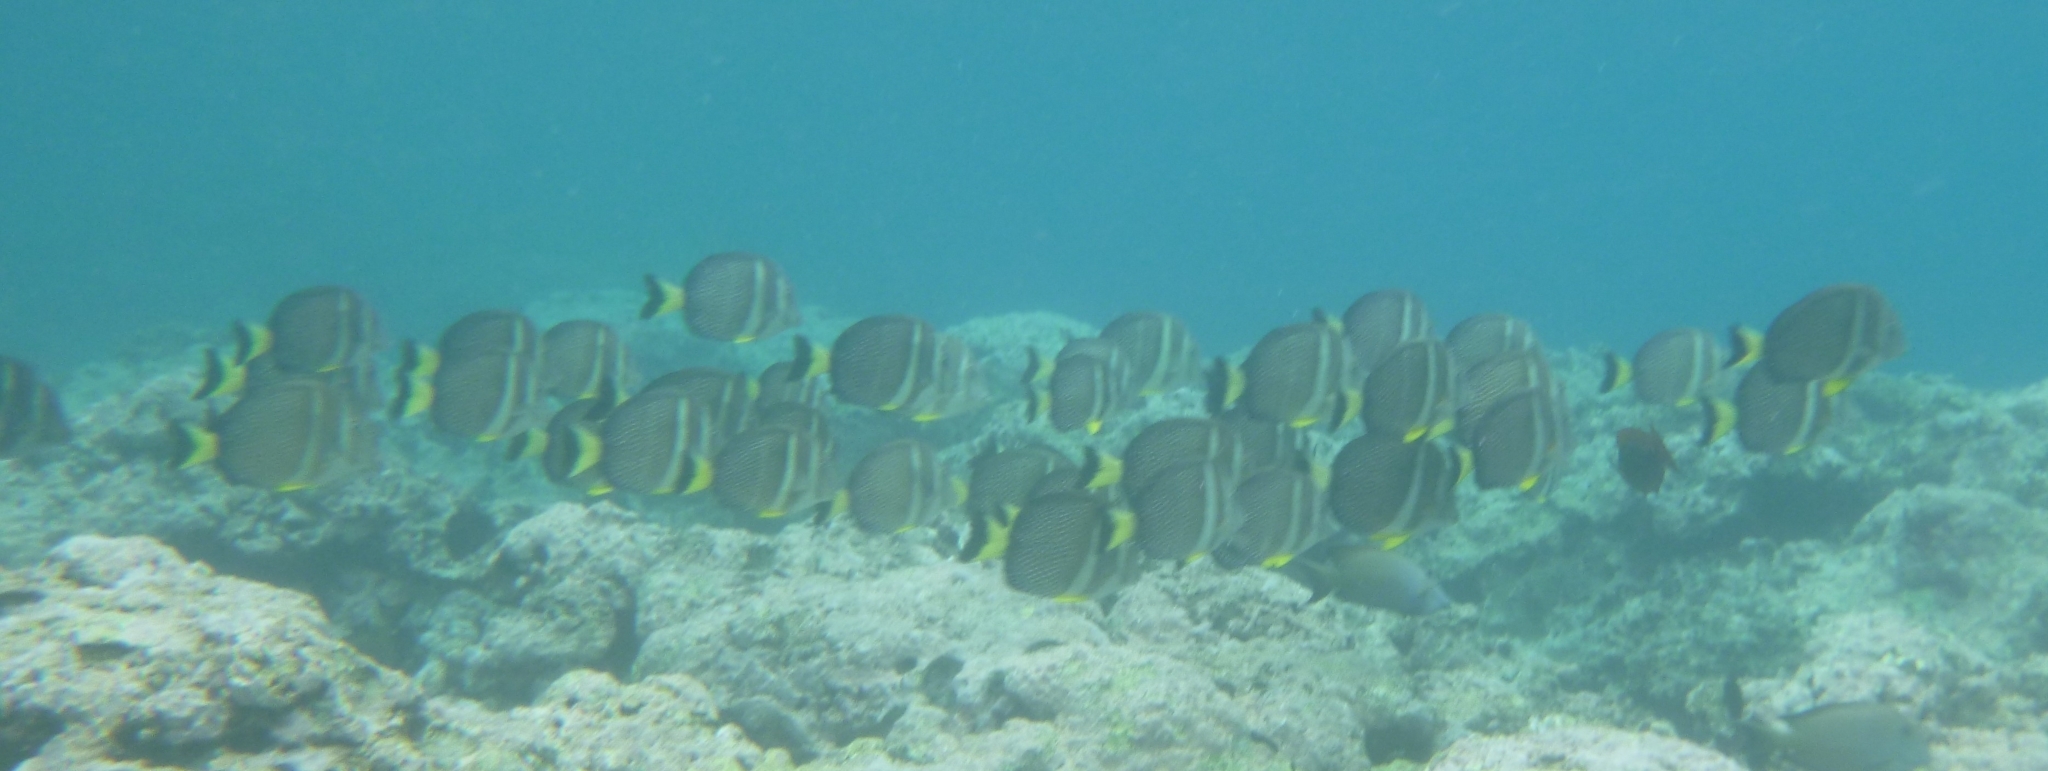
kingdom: Animalia
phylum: Chordata
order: Perciformes
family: Acanthuridae
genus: Acanthurus
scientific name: Acanthurus guttatus
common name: Whitespotted surgeonfish
